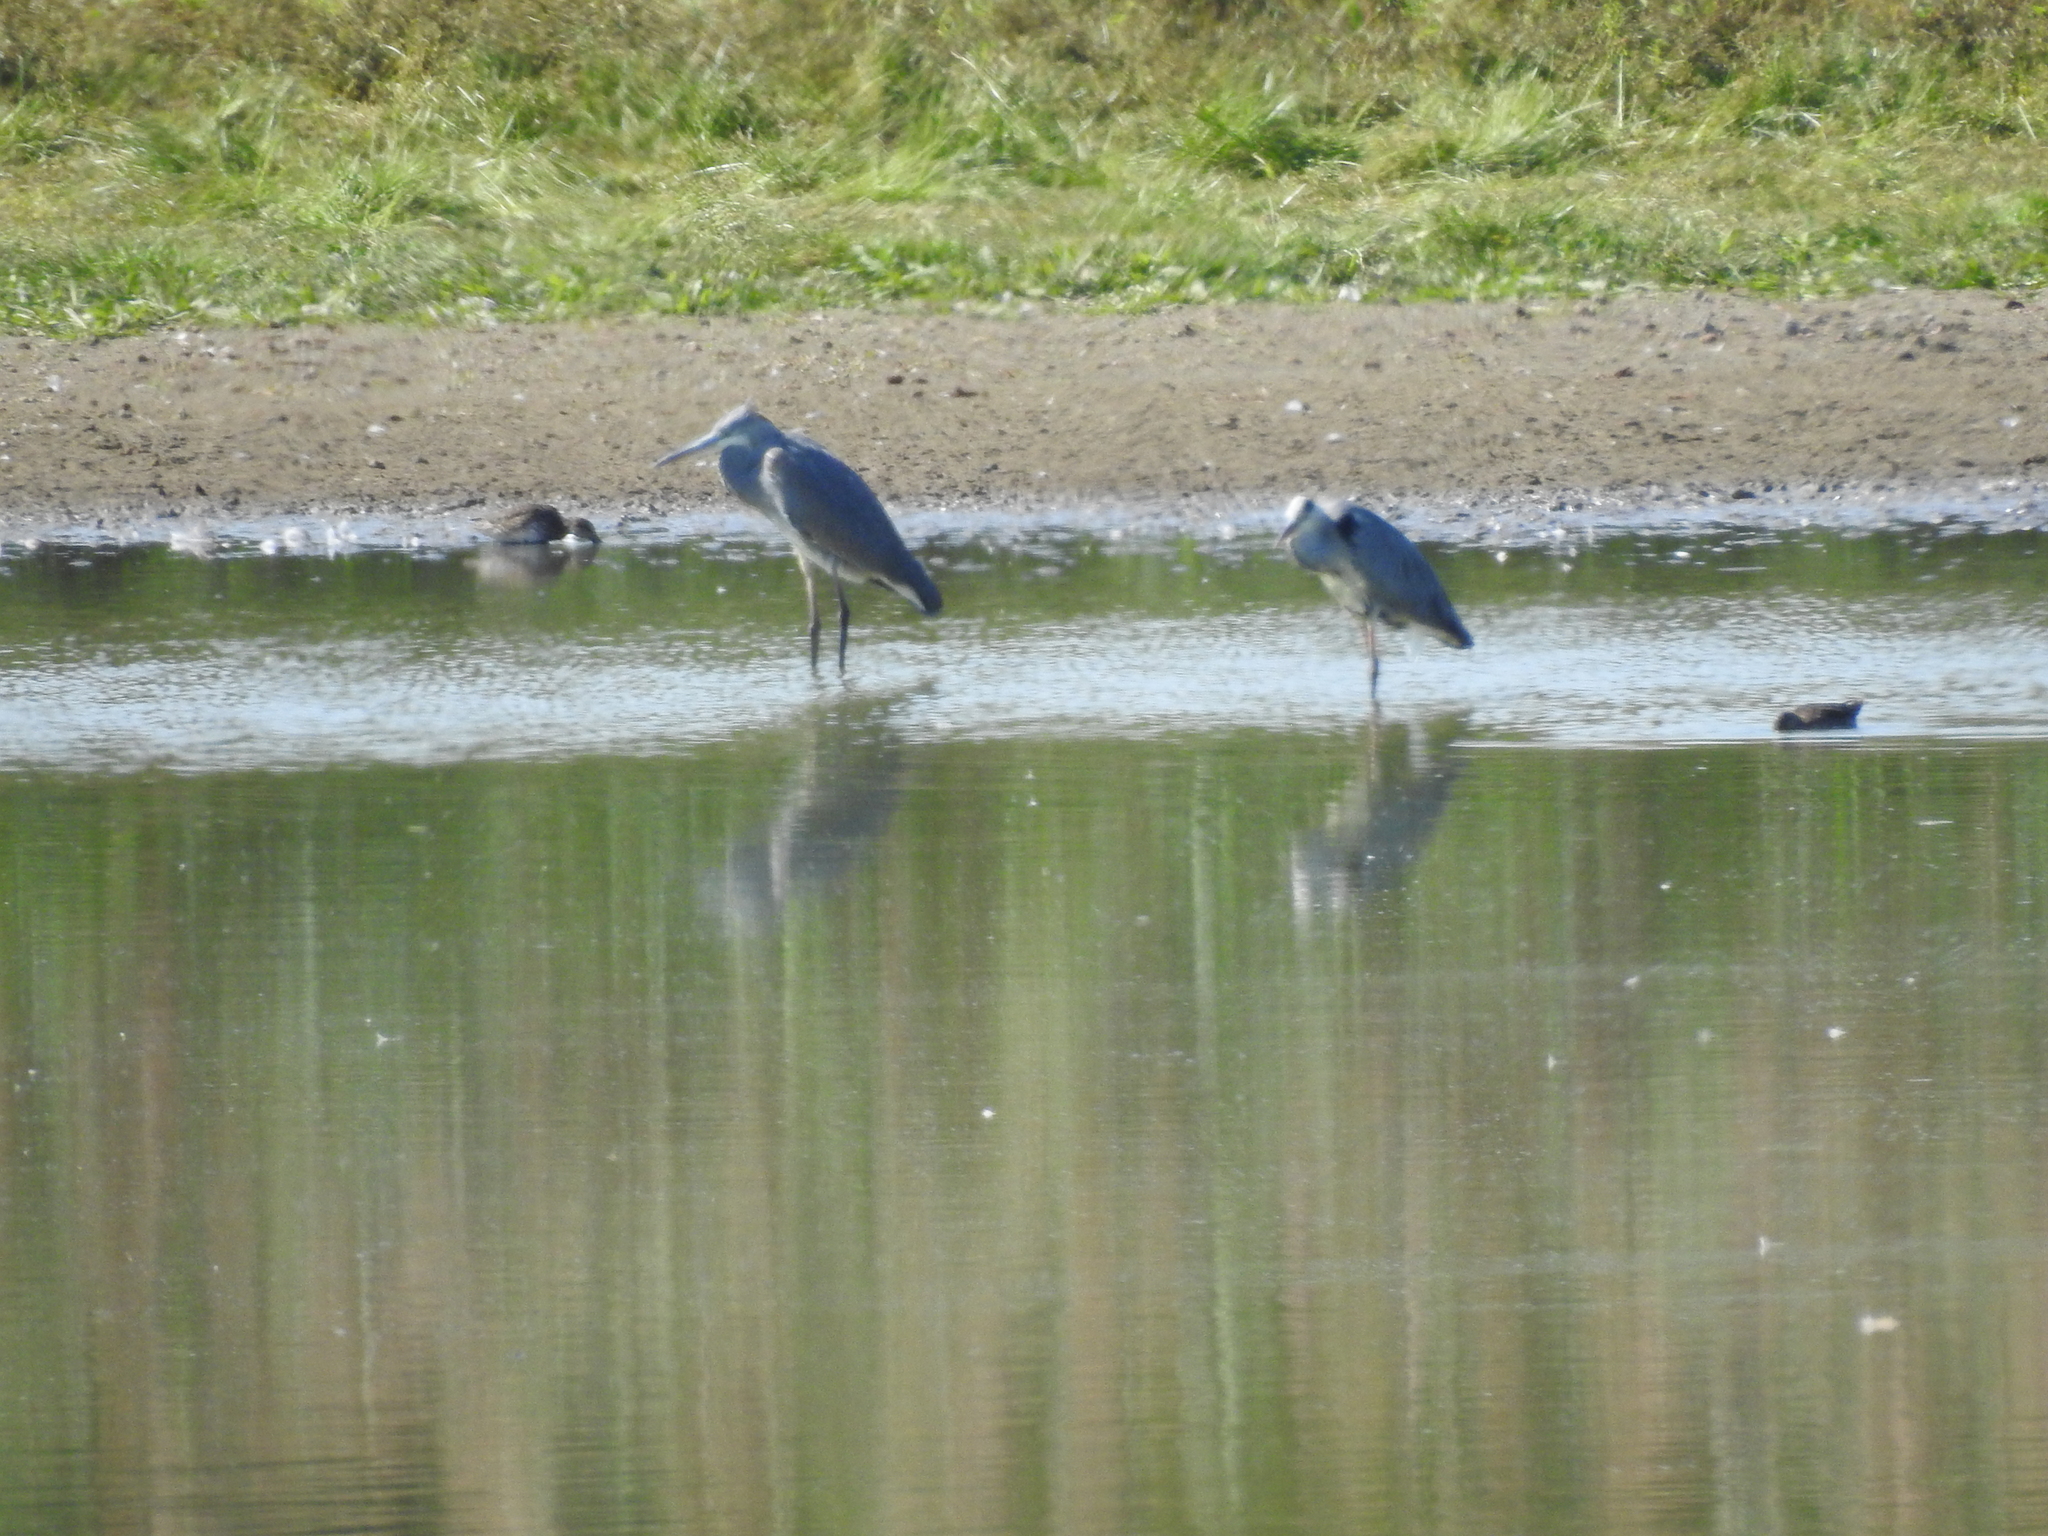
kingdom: Animalia
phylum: Chordata
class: Aves
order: Pelecaniformes
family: Ardeidae
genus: Ardea
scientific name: Ardea cinerea
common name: Grey heron
